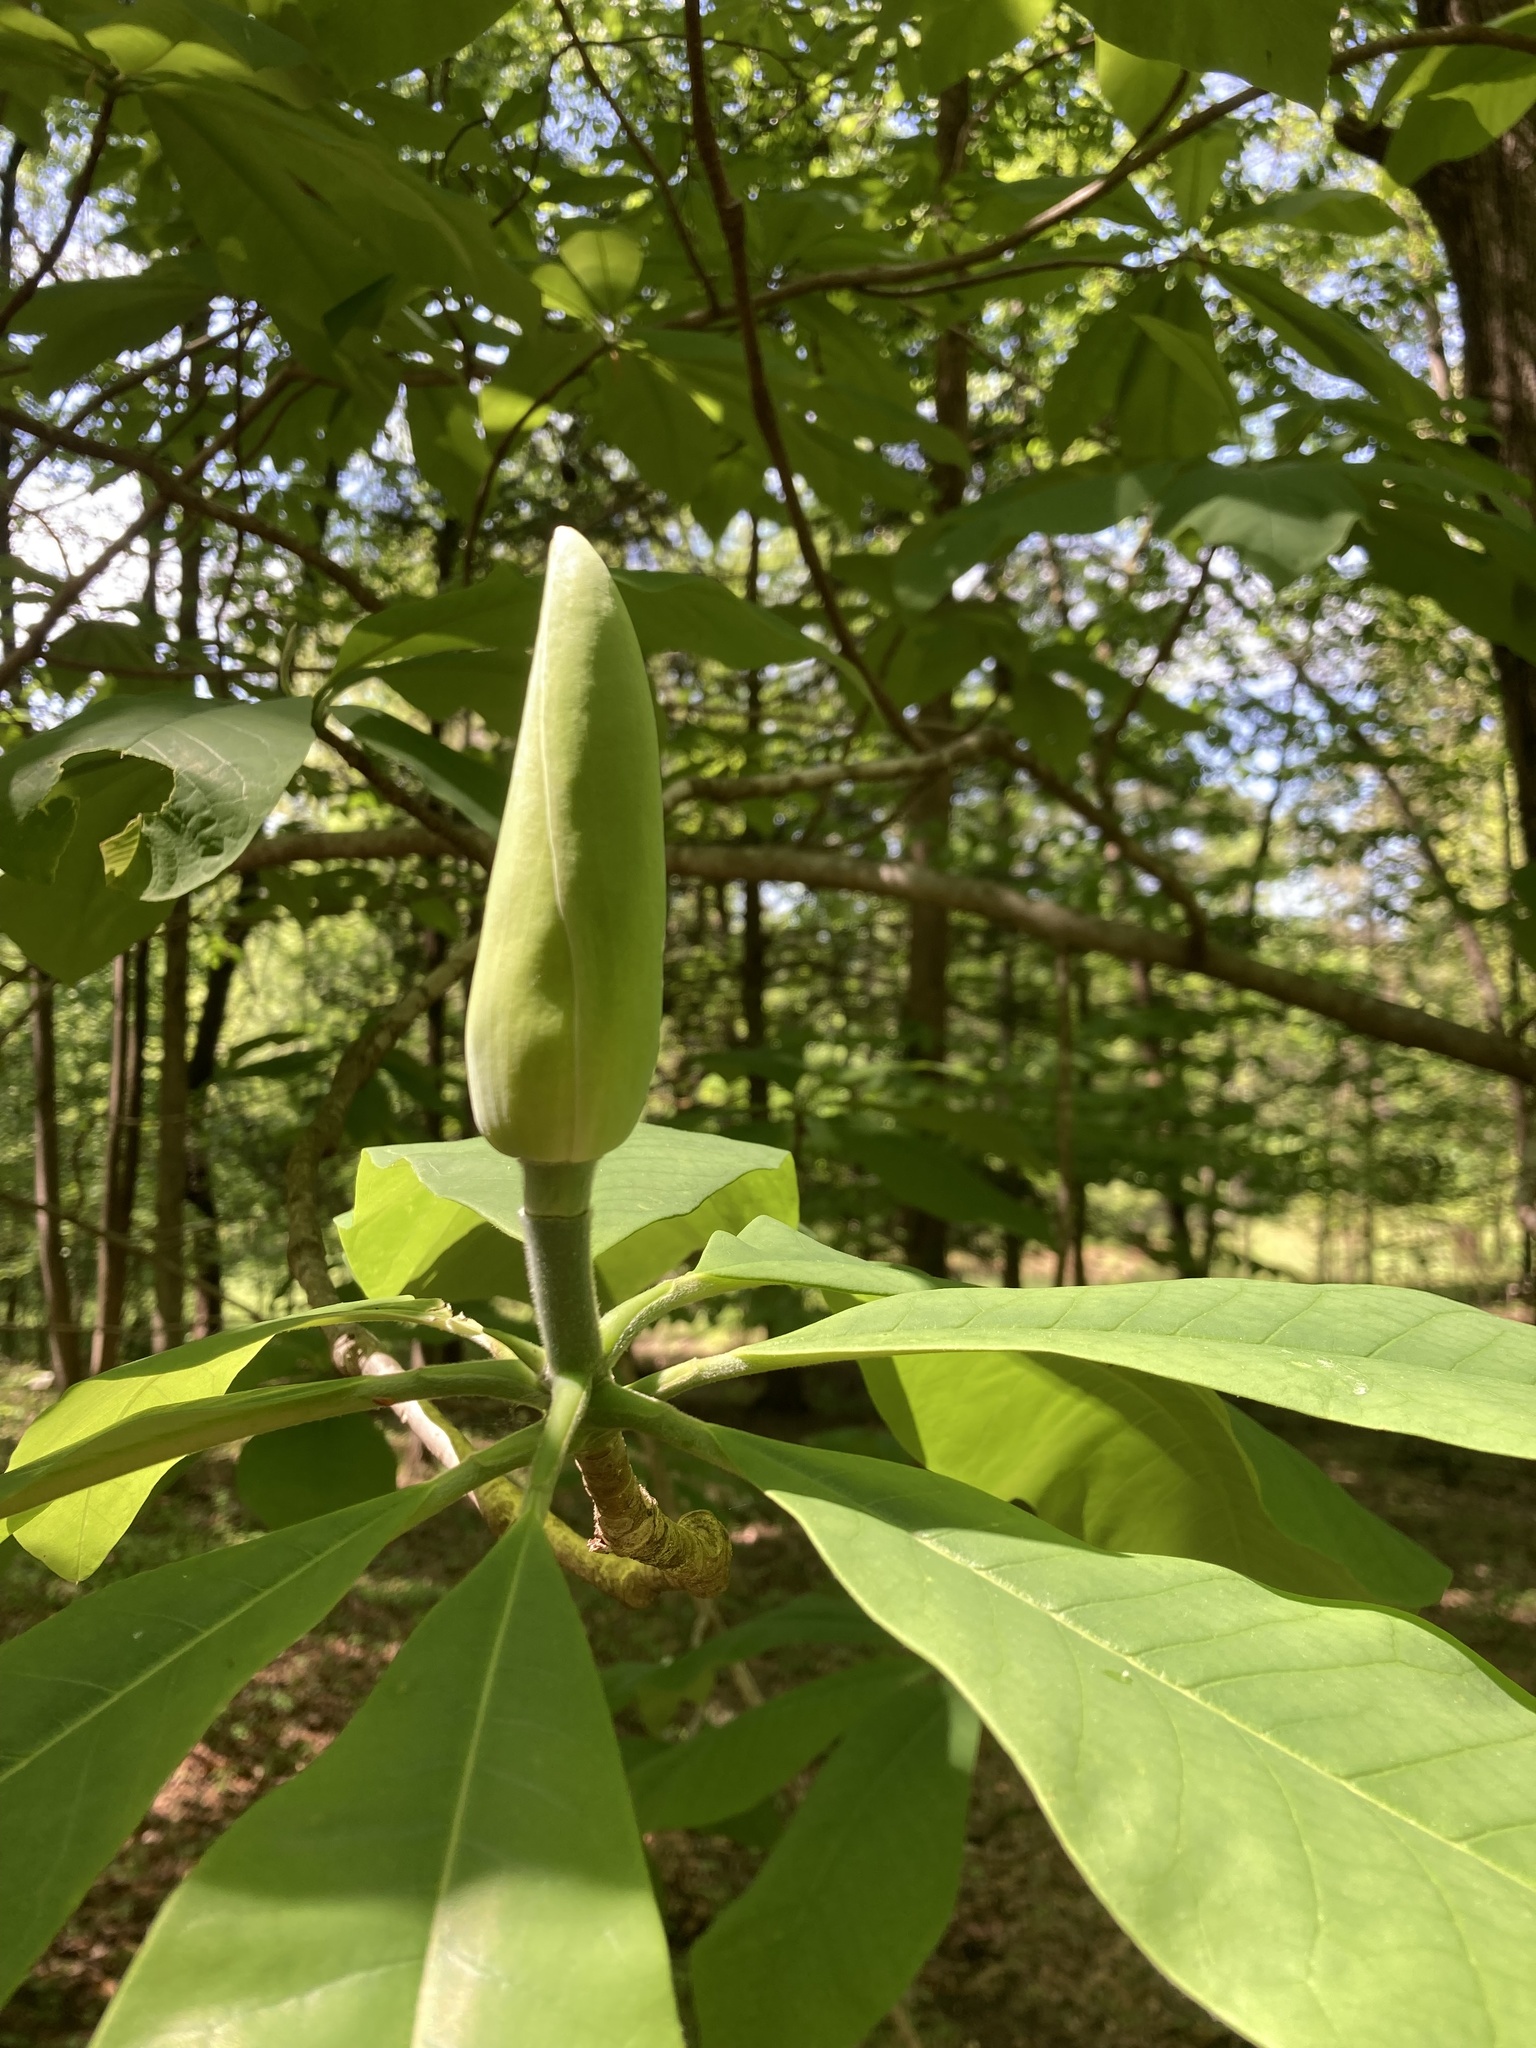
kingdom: Plantae
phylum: Tracheophyta
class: Magnoliopsida
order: Magnoliales
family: Magnoliaceae
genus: Magnolia
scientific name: Magnolia tripetala
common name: Umbrella magnolia
